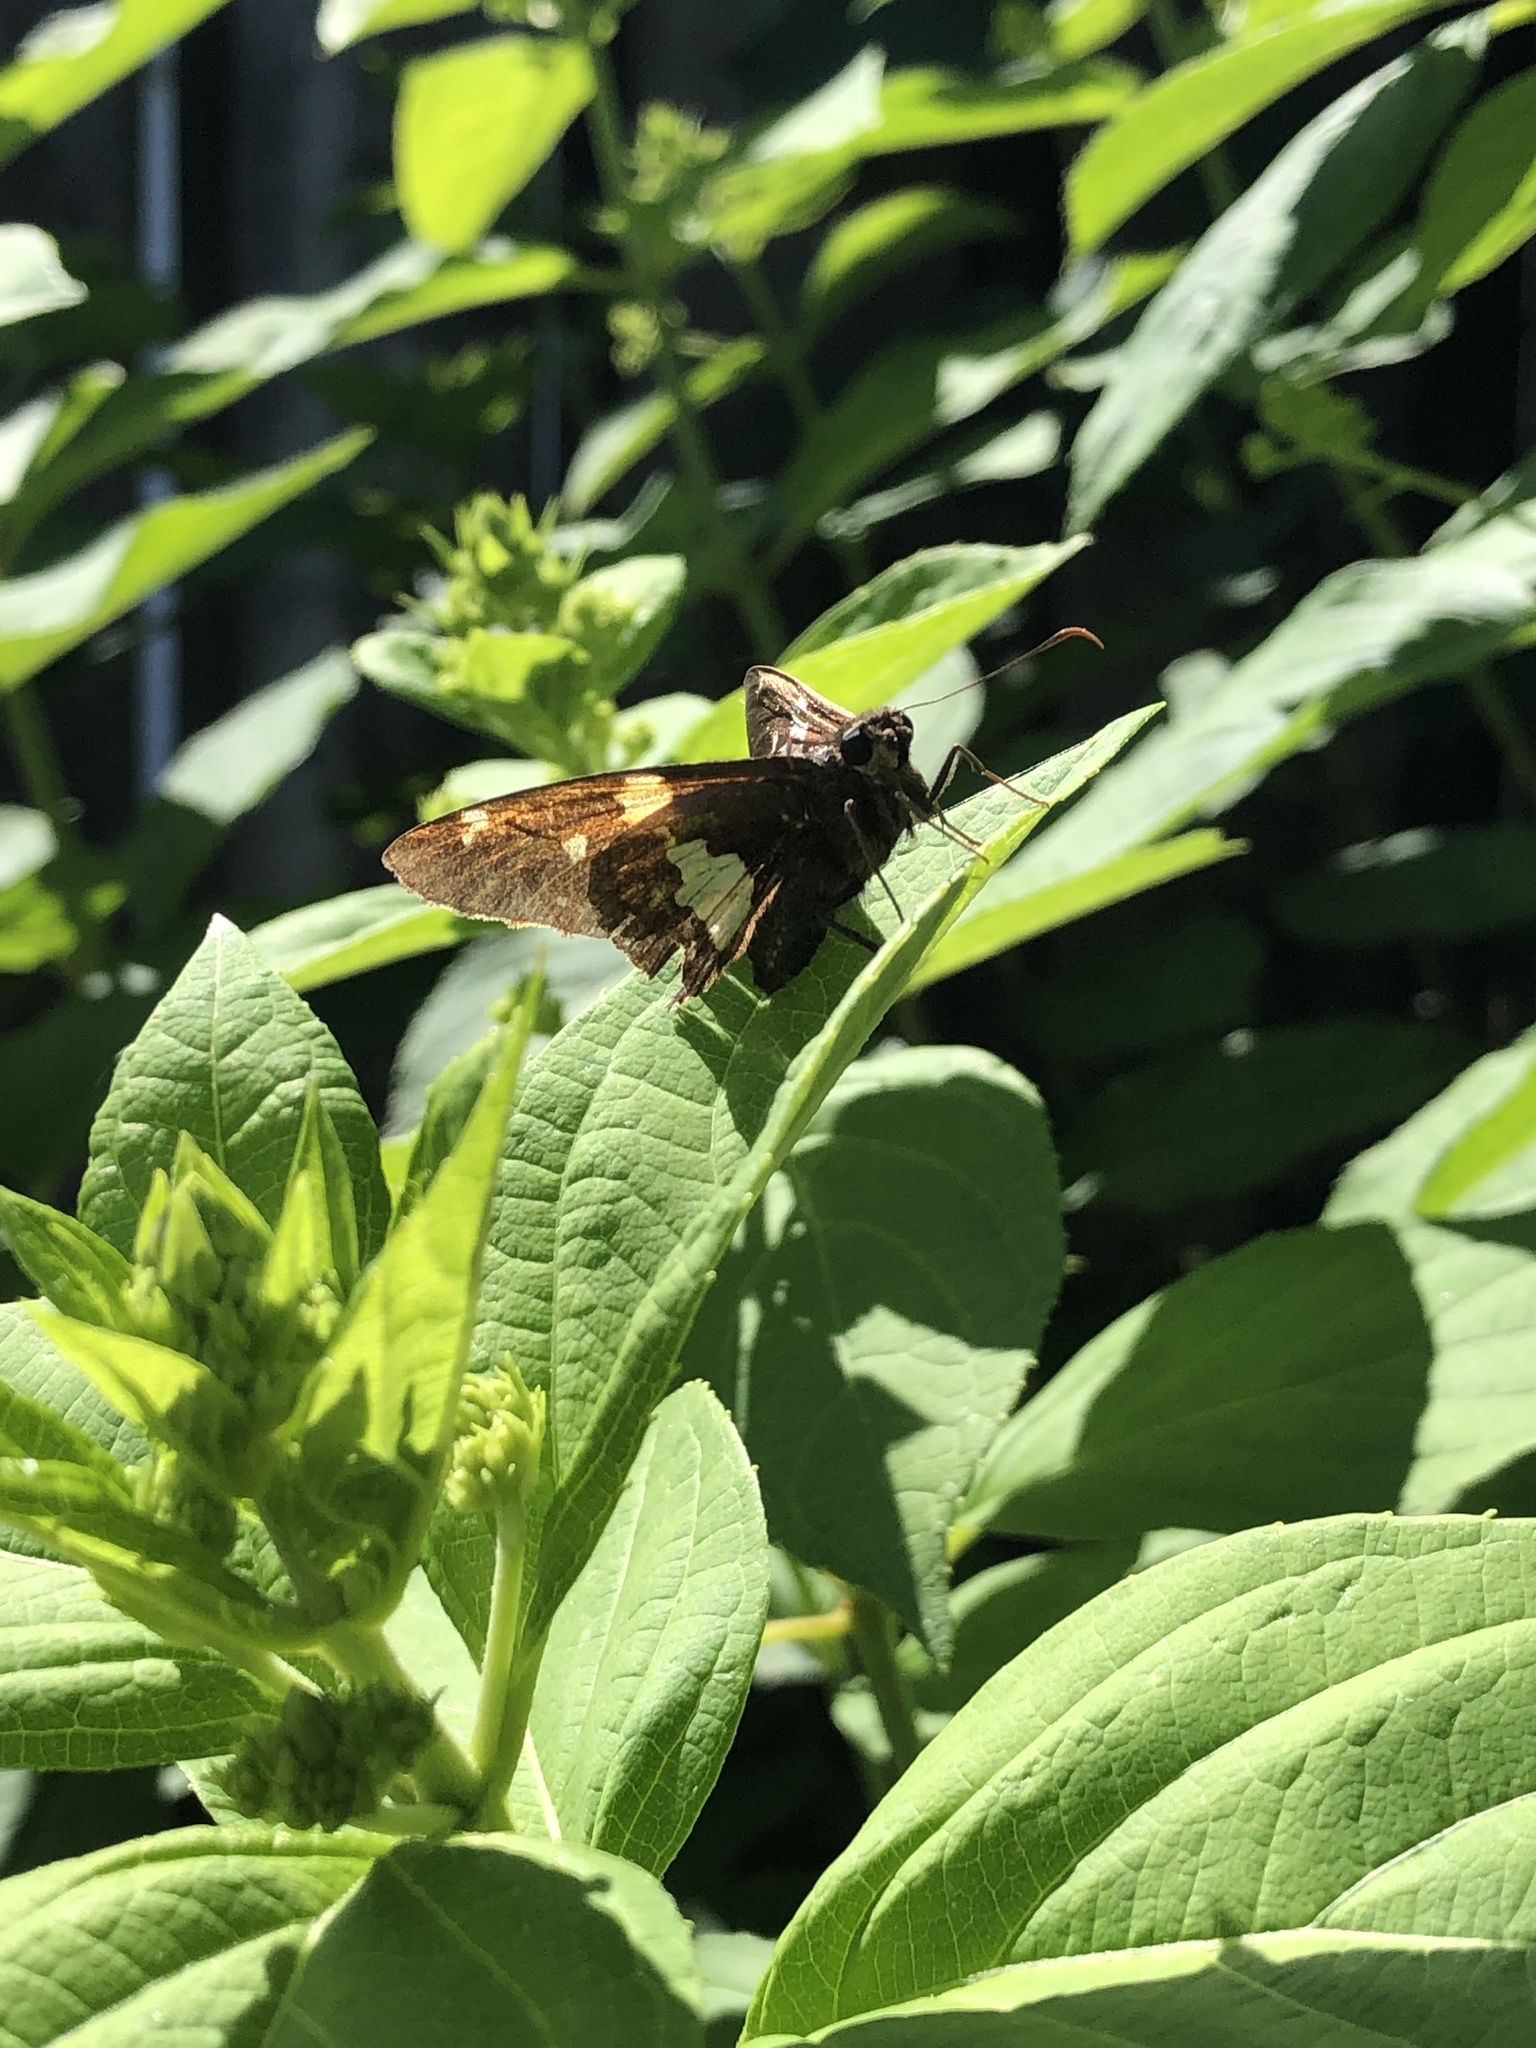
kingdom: Animalia
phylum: Arthropoda
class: Insecta
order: Lepidoptera
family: Hesperiidae
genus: Epargyreus
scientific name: Epargyreus clarus
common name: Silver-spotted skipper
